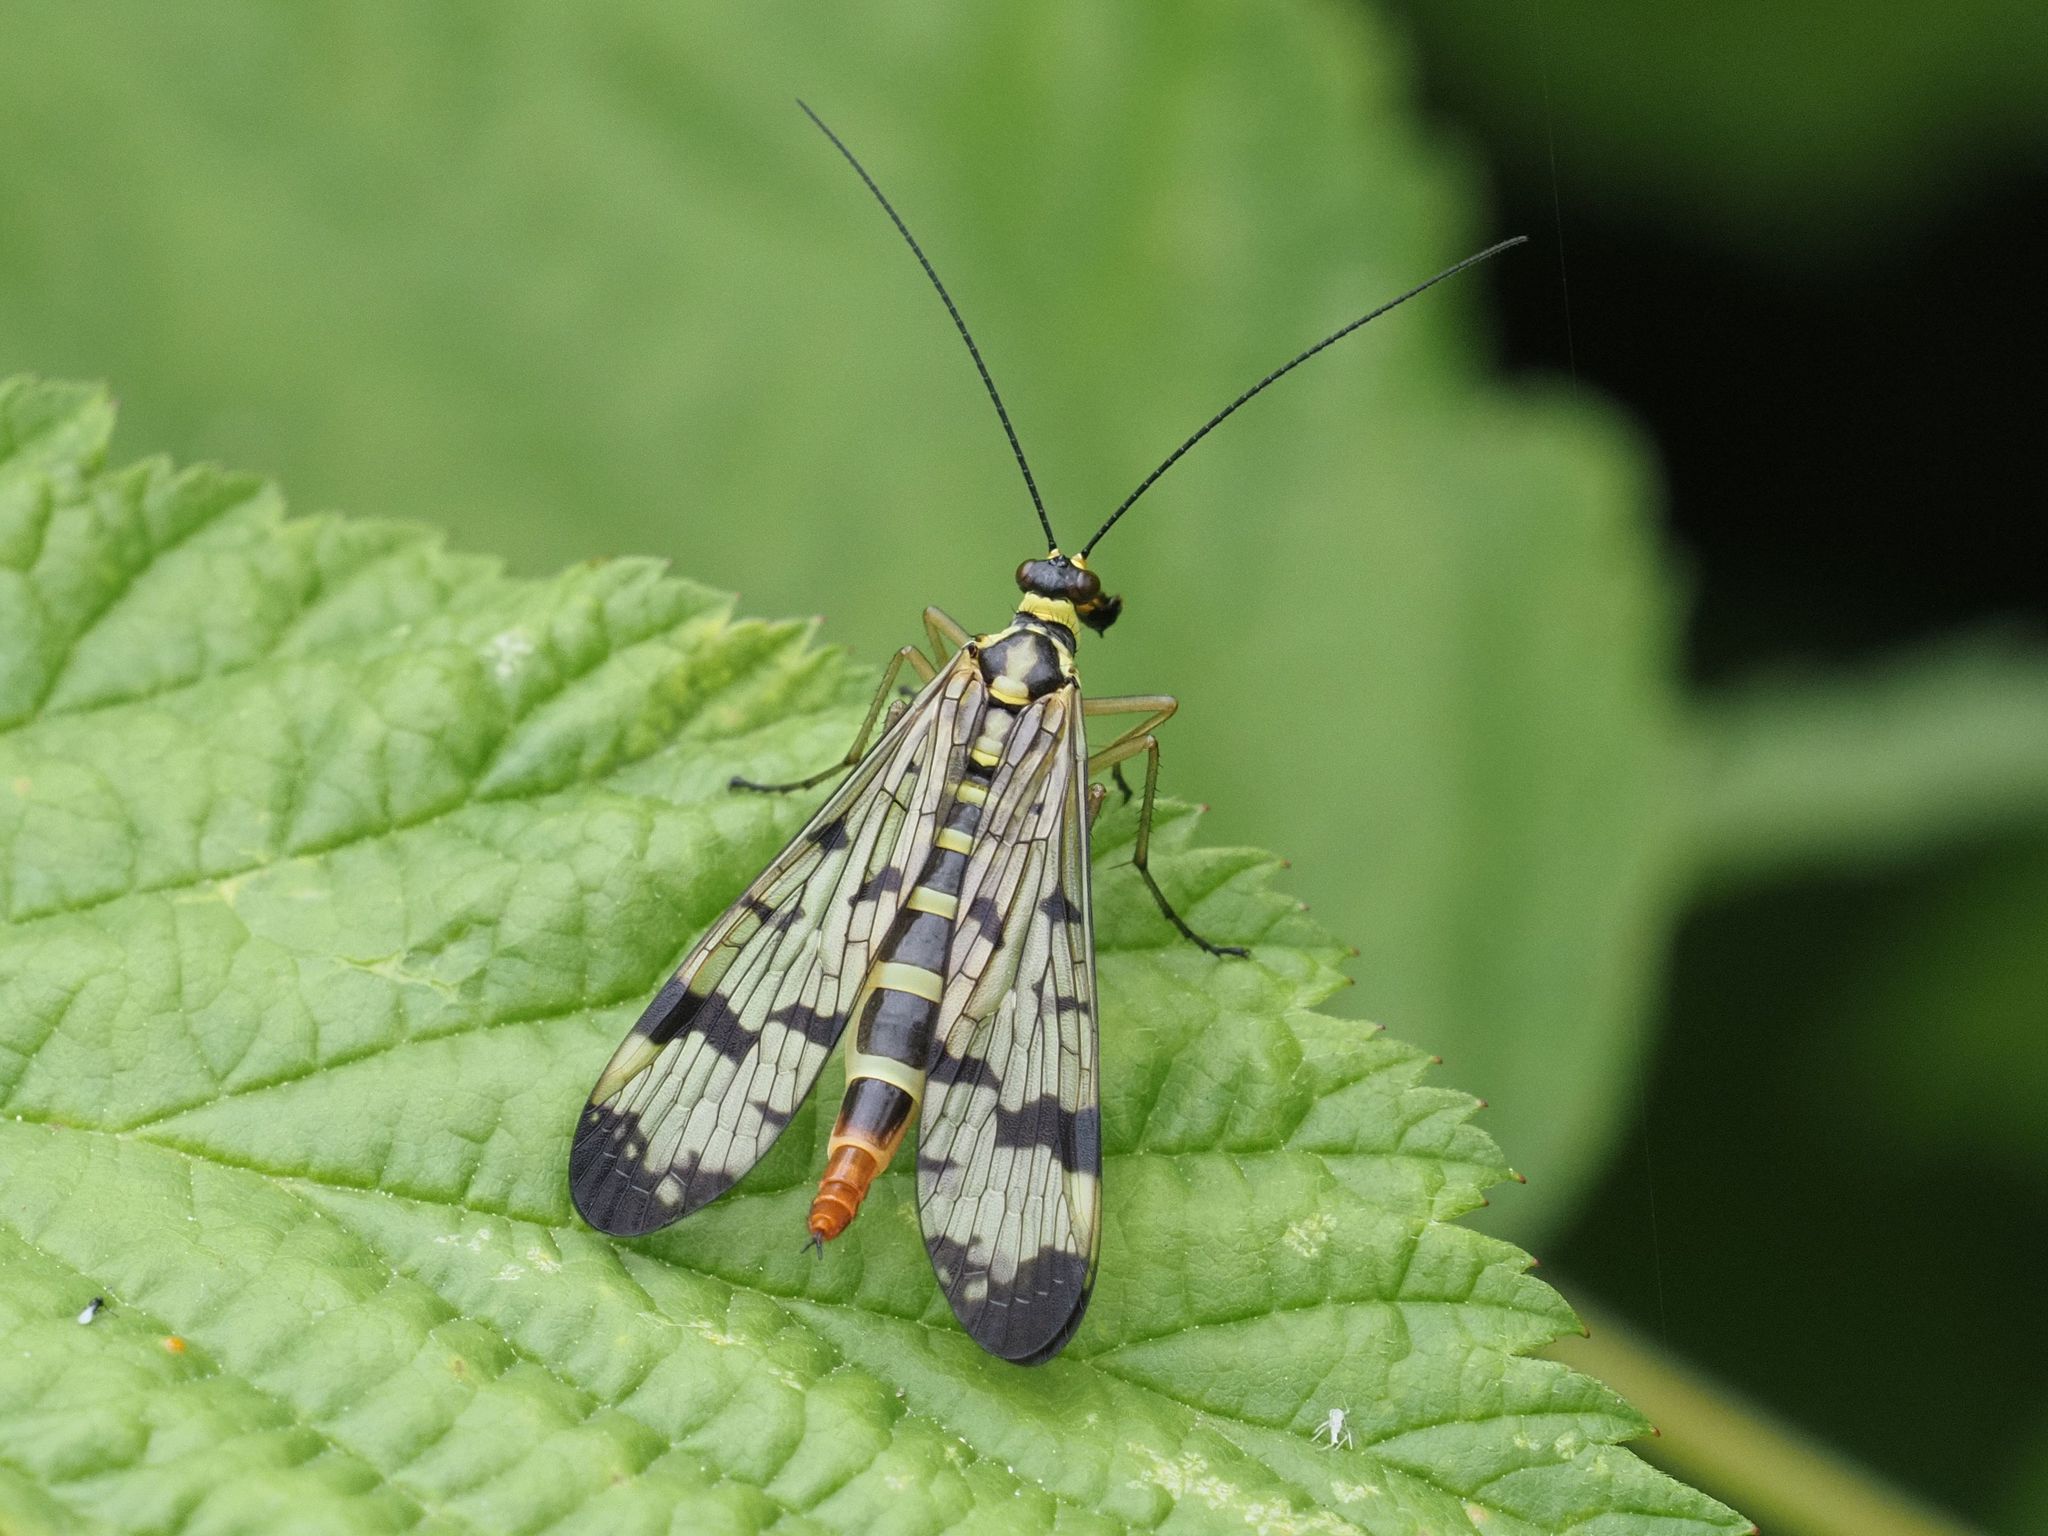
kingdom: Animalia
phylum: Arthropoda
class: Insecta
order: Mecoptera
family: Panorpidae
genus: Panorpa
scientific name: Panorpa communis
